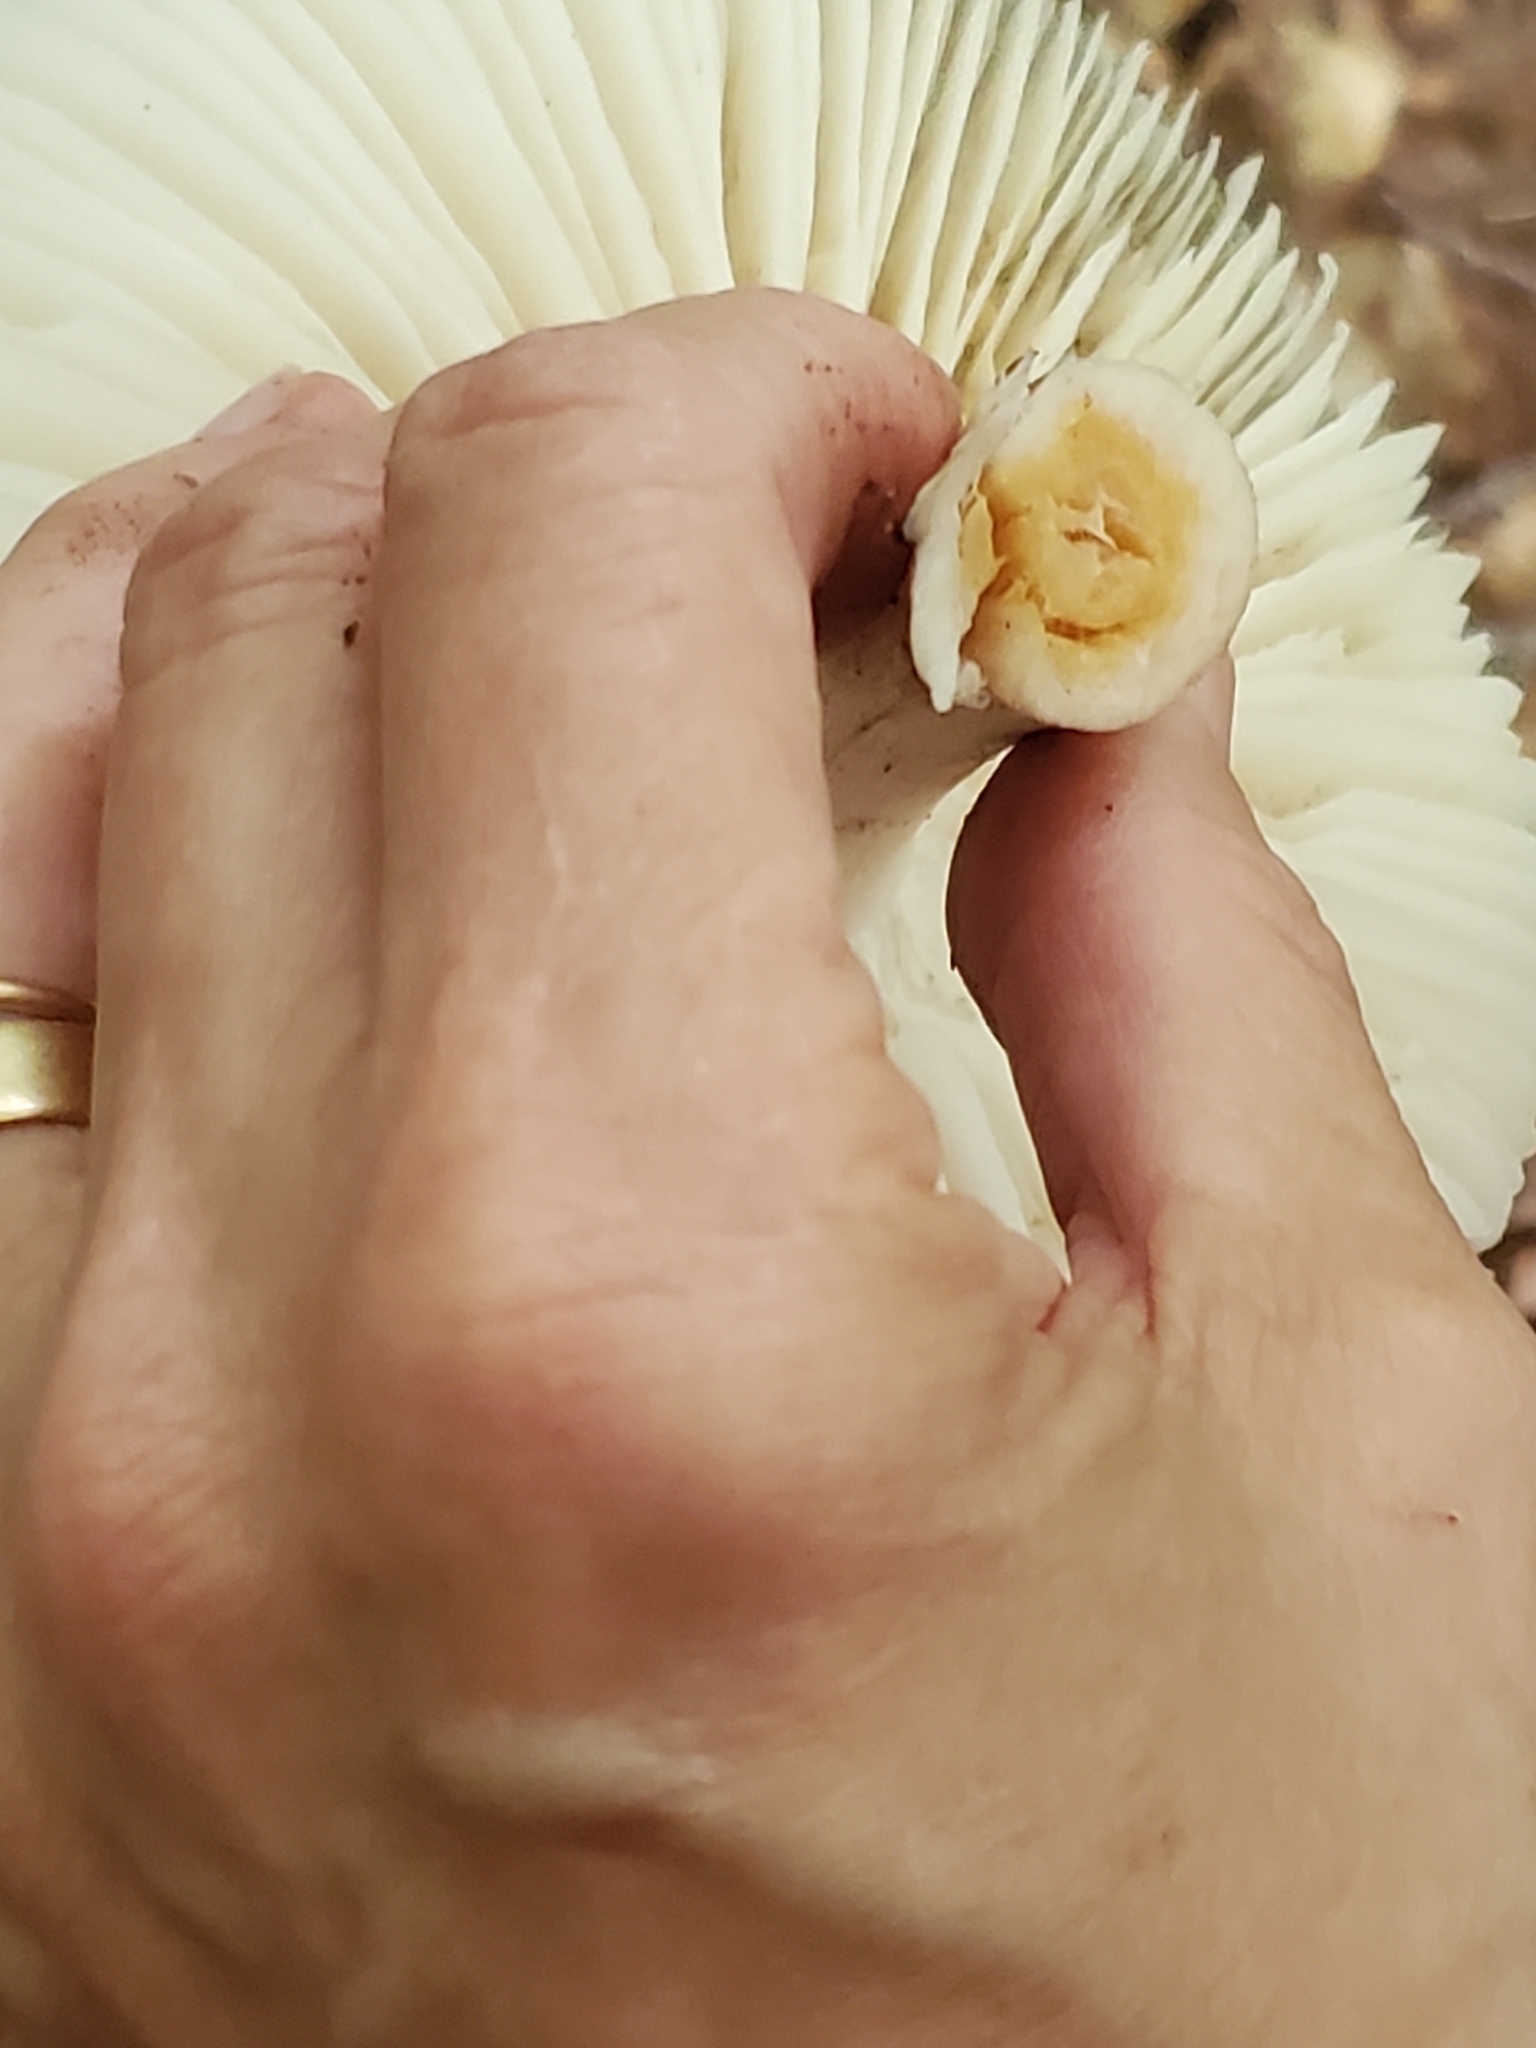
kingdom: Fungi
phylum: Basidiomycota
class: Agaricomycetes
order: Agaricales
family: Tricholomataceae
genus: Megacollybia
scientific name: Megacollybia rodmanii
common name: Eastern american platterful mushroom
